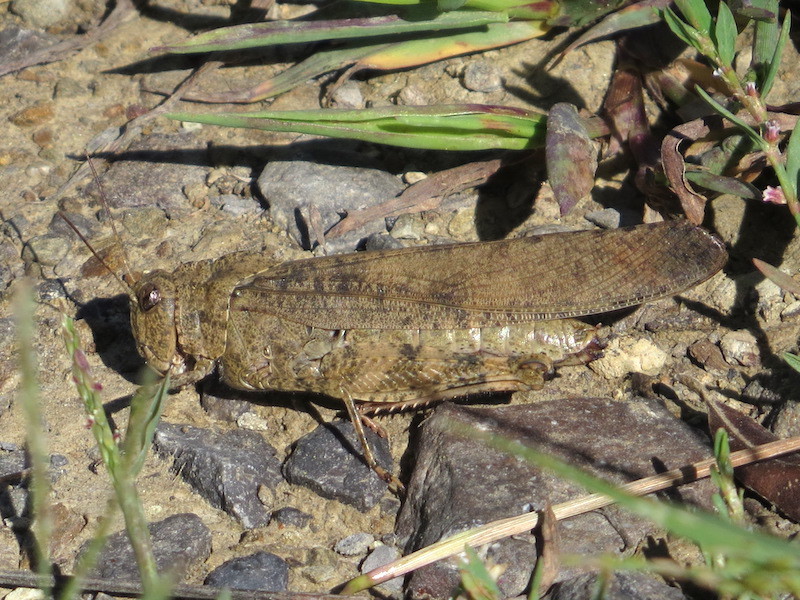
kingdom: Animalia
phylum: Arthropoda
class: Insecta
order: Orthoptera
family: Acrididae
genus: Dissosteira
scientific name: Dissosteira carolina
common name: Carolina grasshopper
